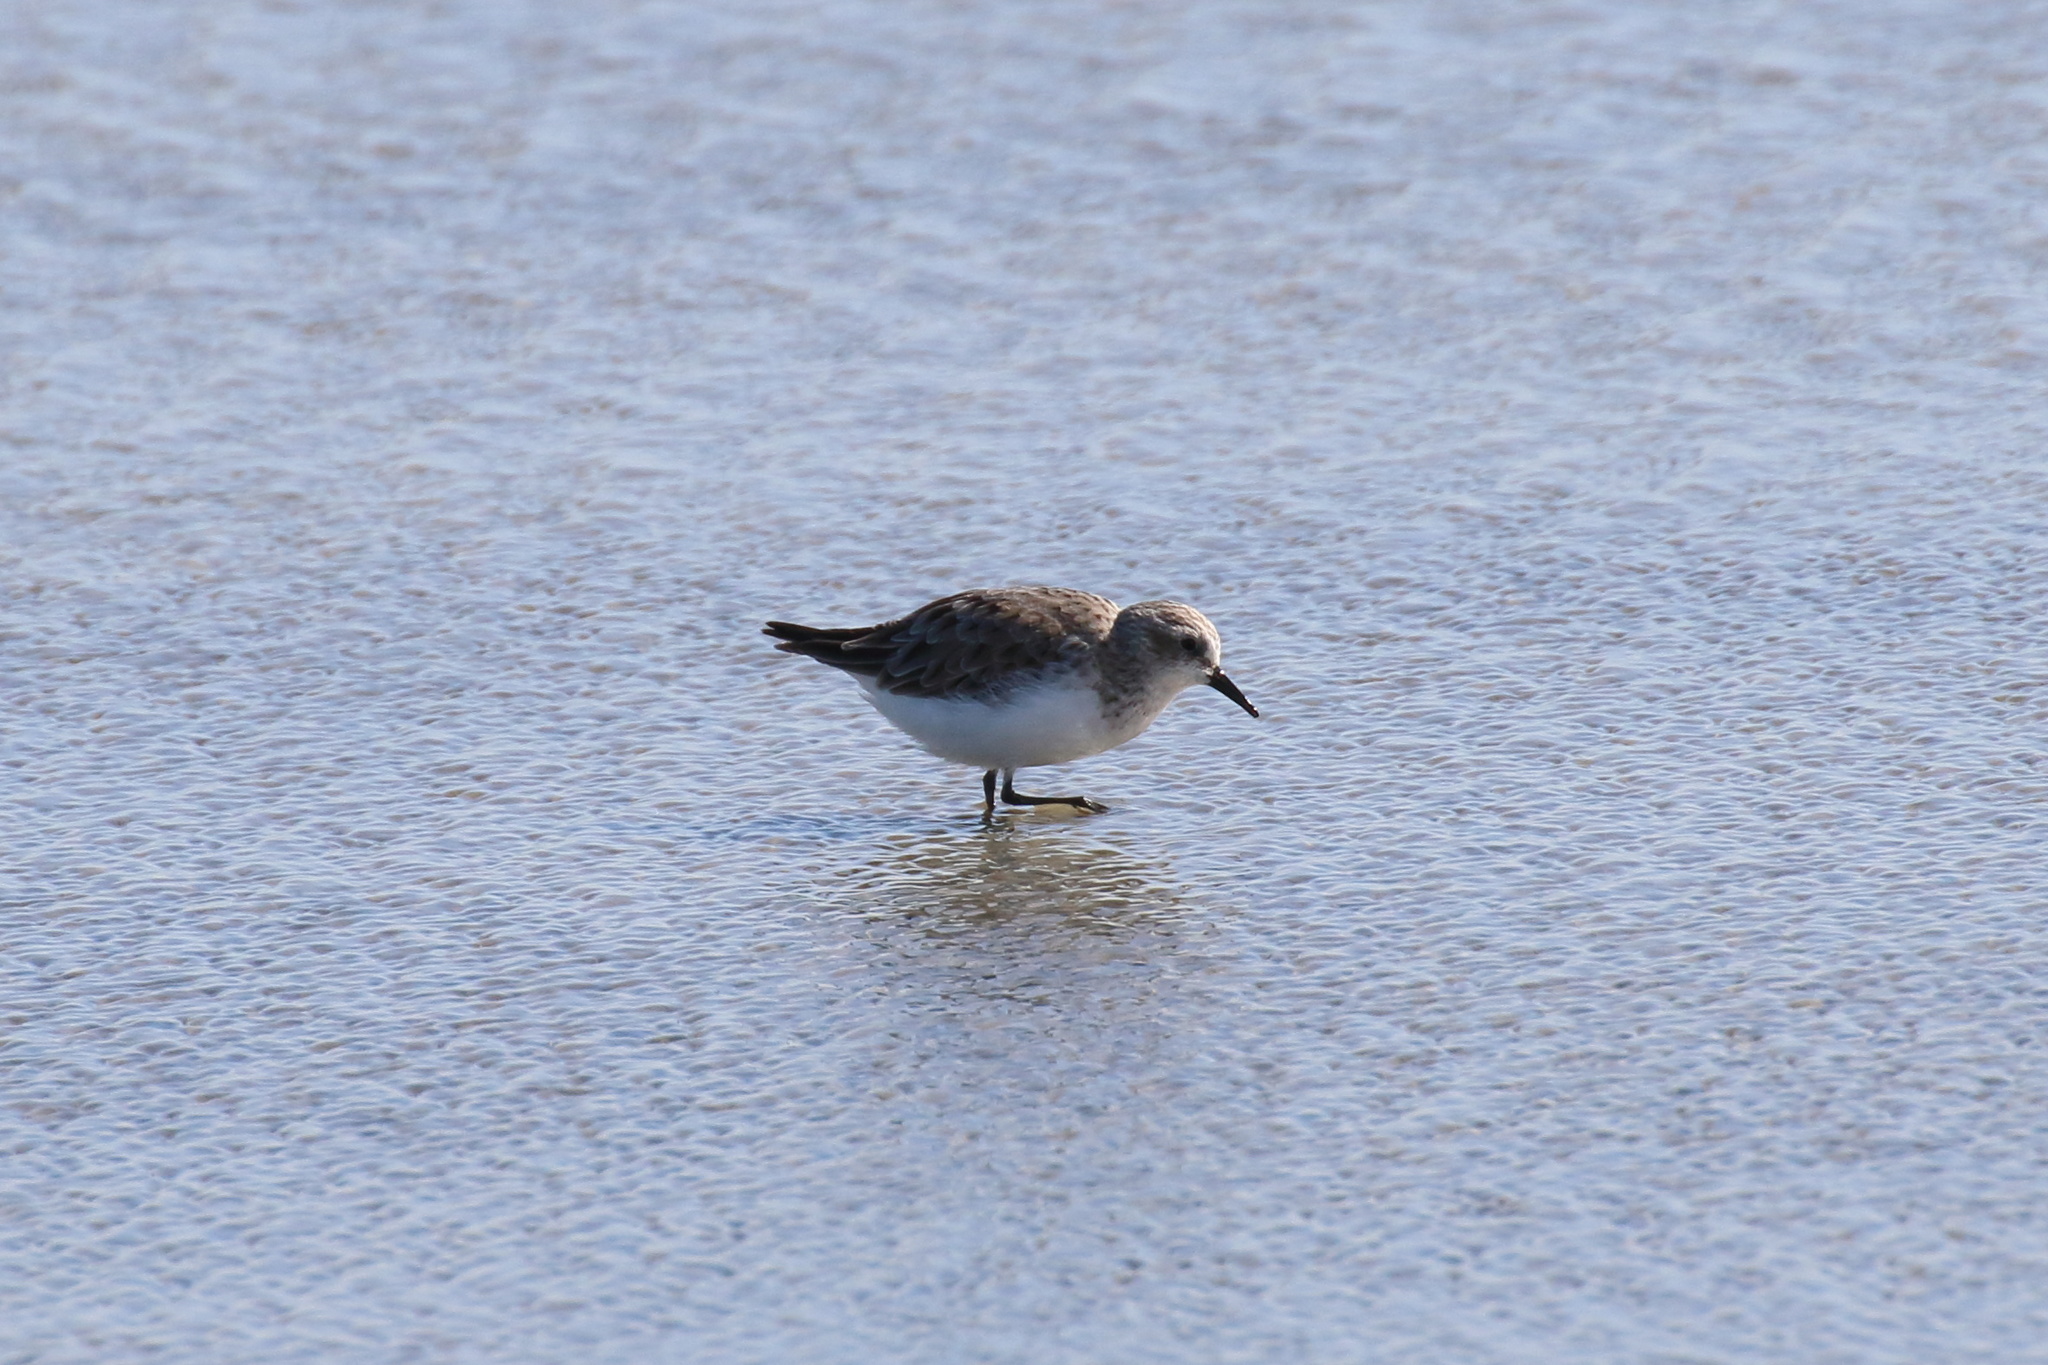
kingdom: Animalia
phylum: Chordata
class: Aves
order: Charadriiformes
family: Scolopacidae
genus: Calidris
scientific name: Calidris ruficollis
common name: Red-necked stint
